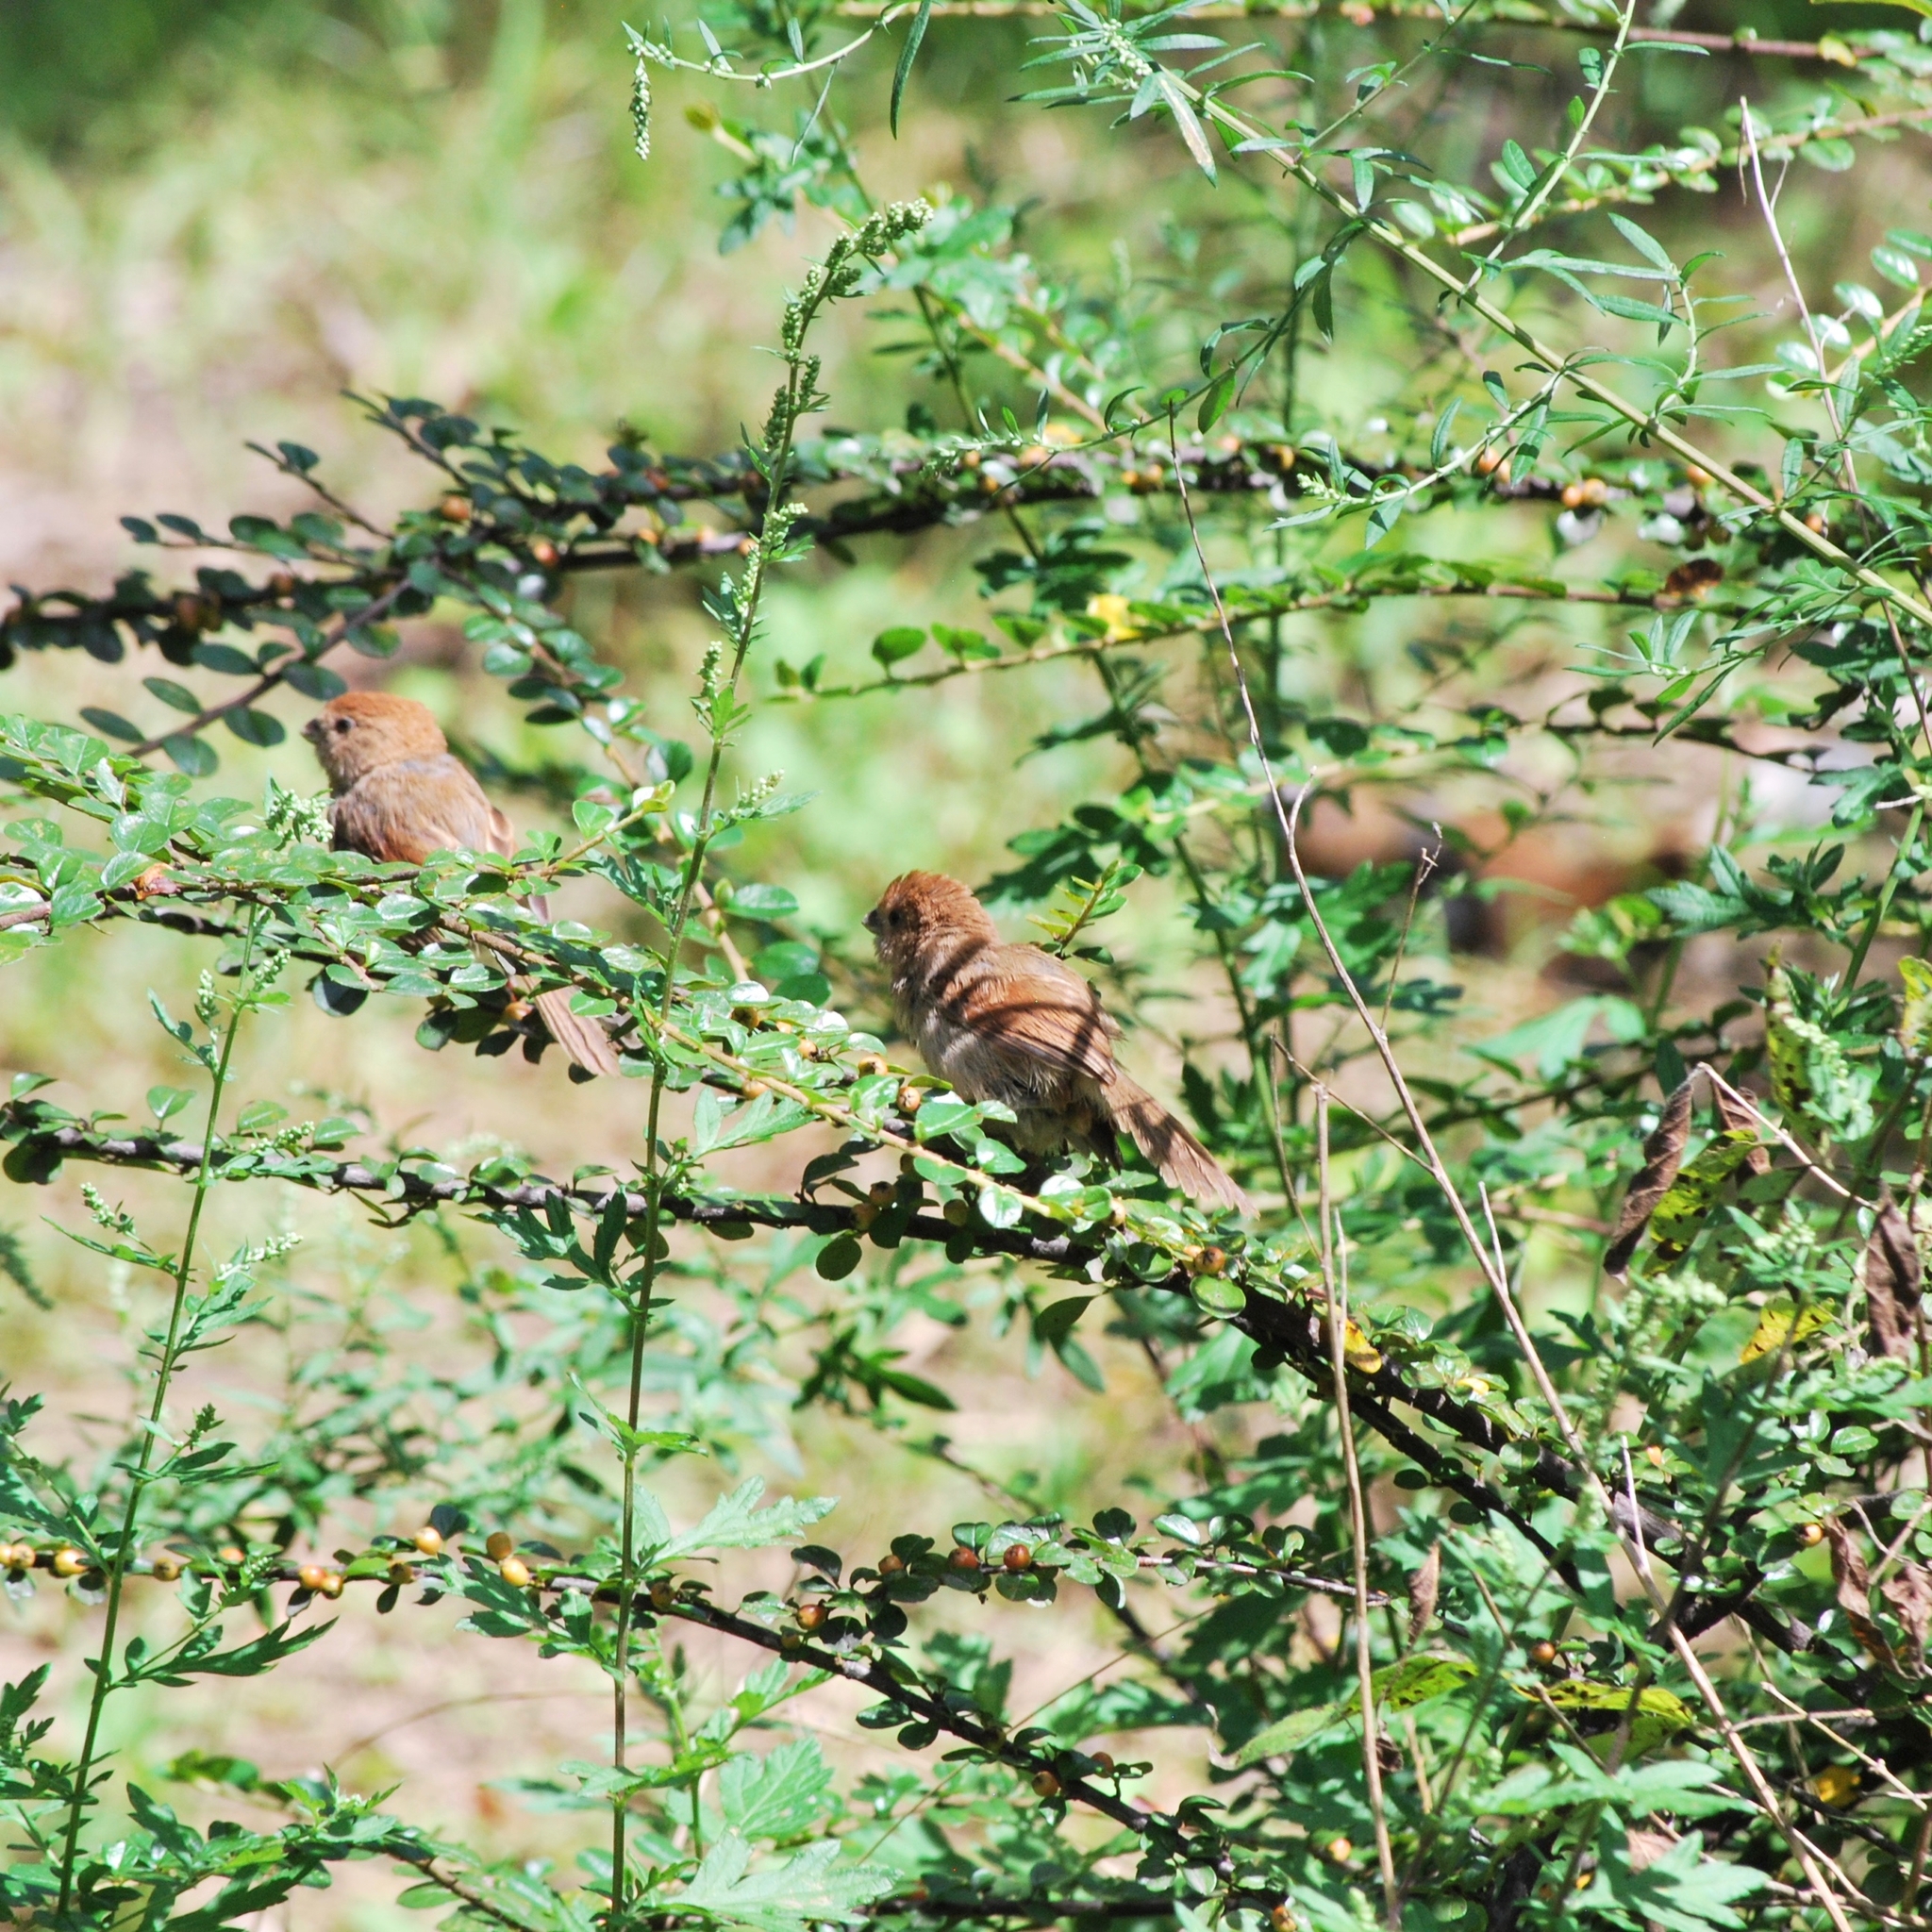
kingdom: Animalia
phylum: Chordata
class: Aves
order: Passeriformes
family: Sylviidae
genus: Sinosuthora
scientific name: Sinosuthora webbiana
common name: Vinous-throated parrotbill
